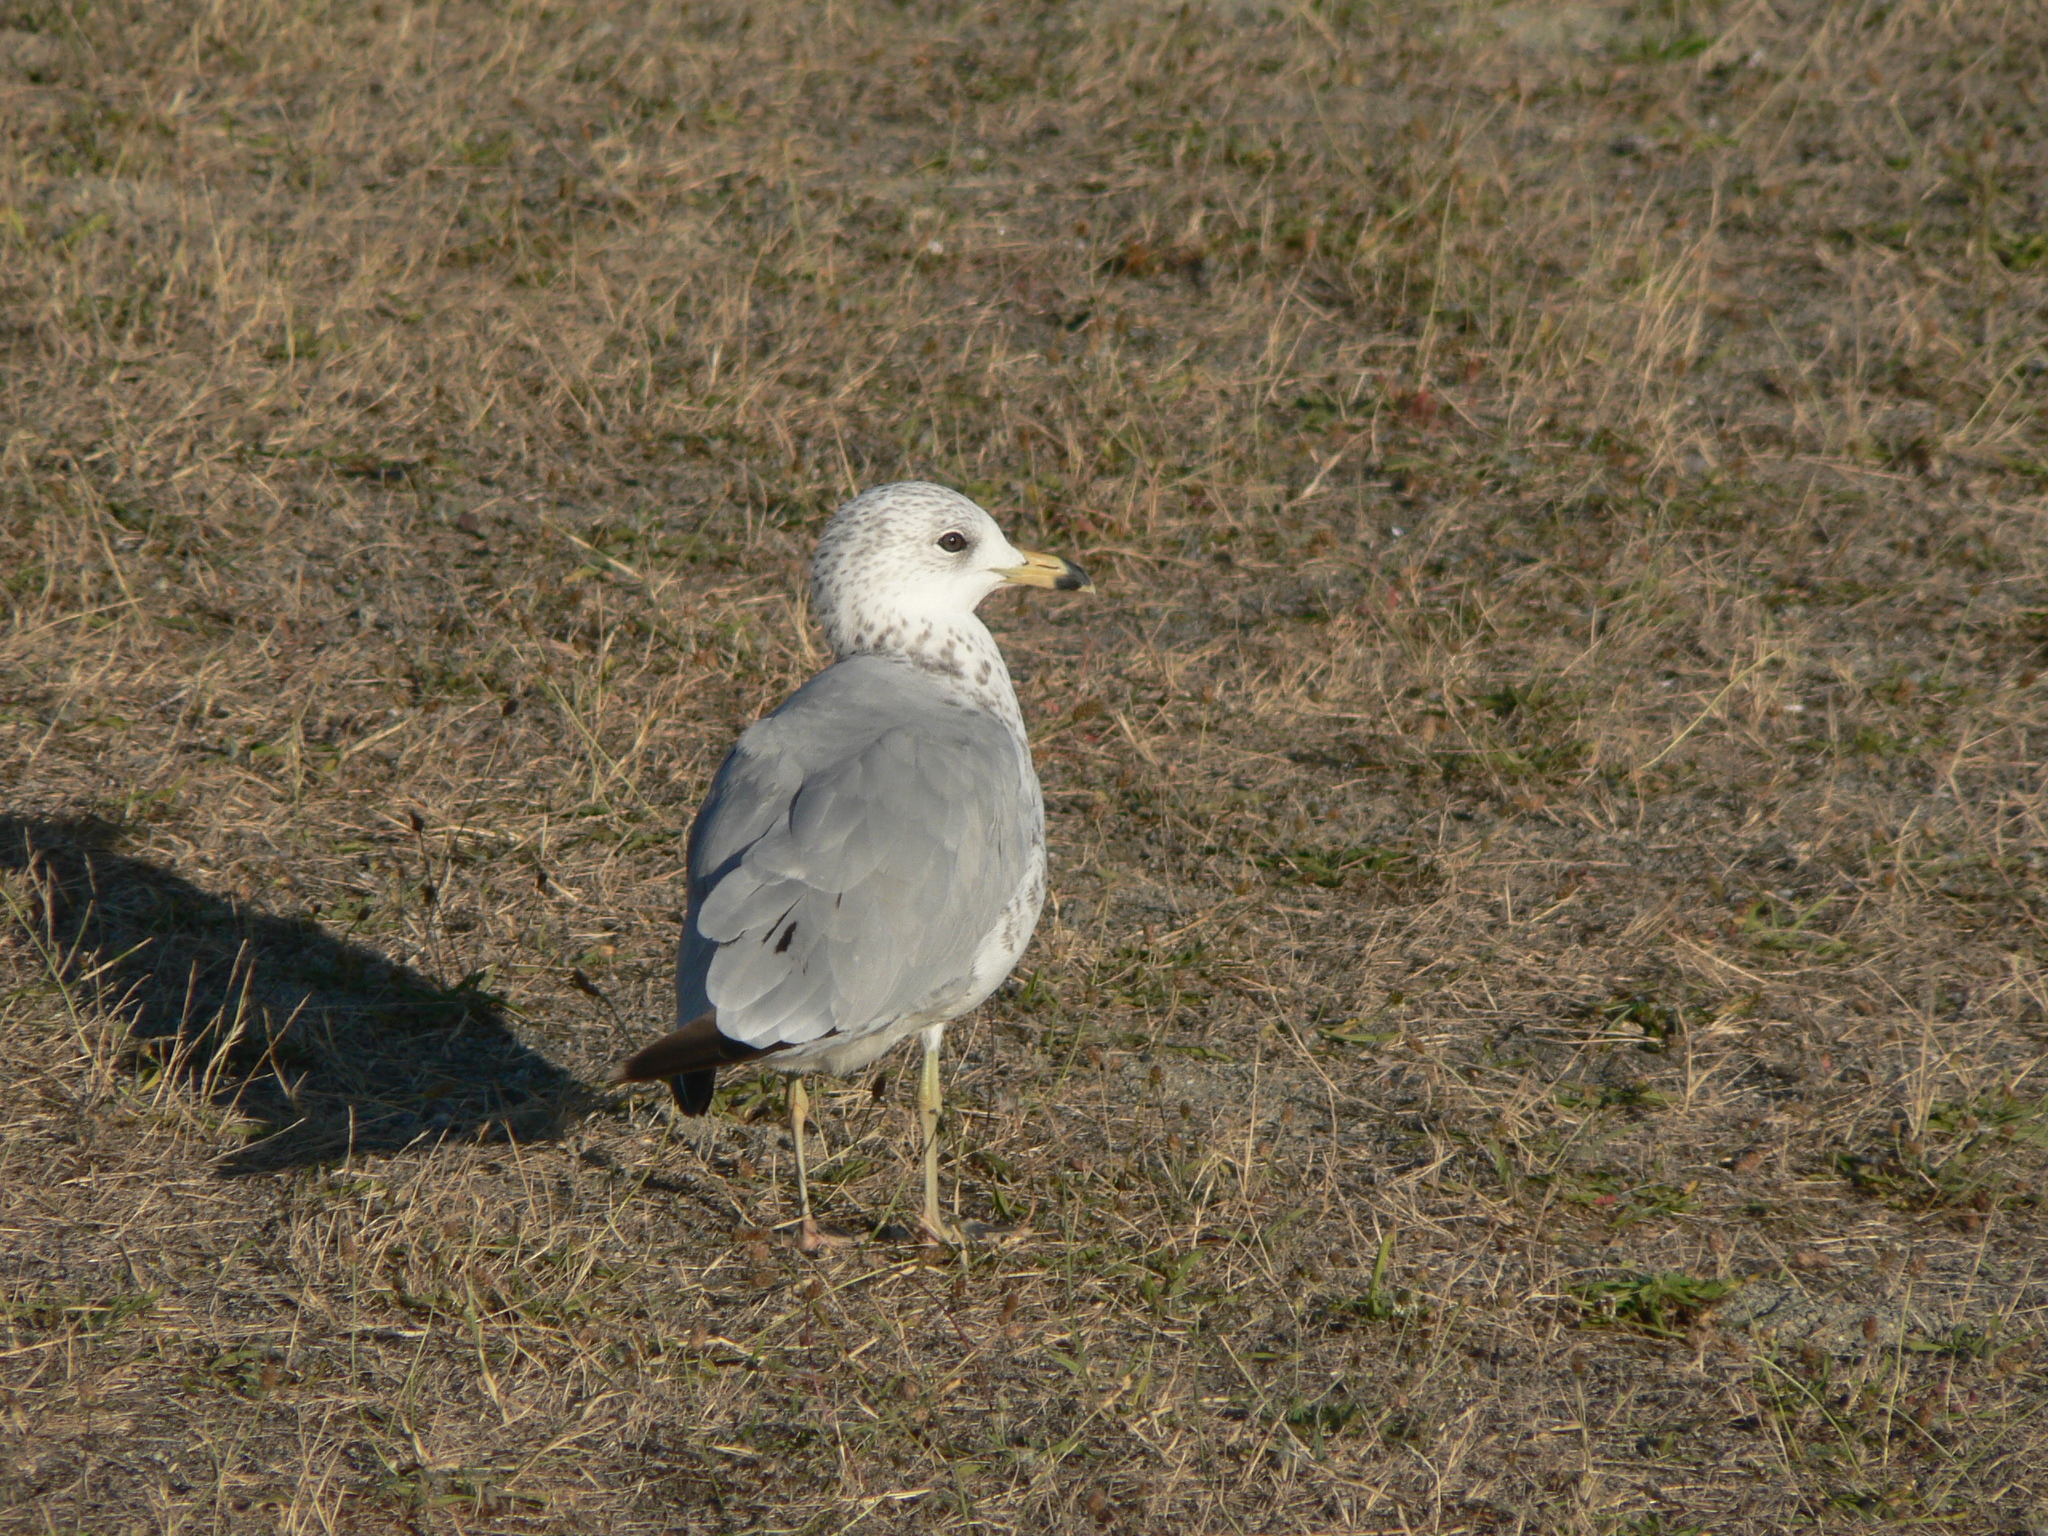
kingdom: Animalia
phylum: Chordata
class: Aves
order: Charadriiformes
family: Laridae
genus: Larus
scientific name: Larus delawarensis
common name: Ring-billed gull
